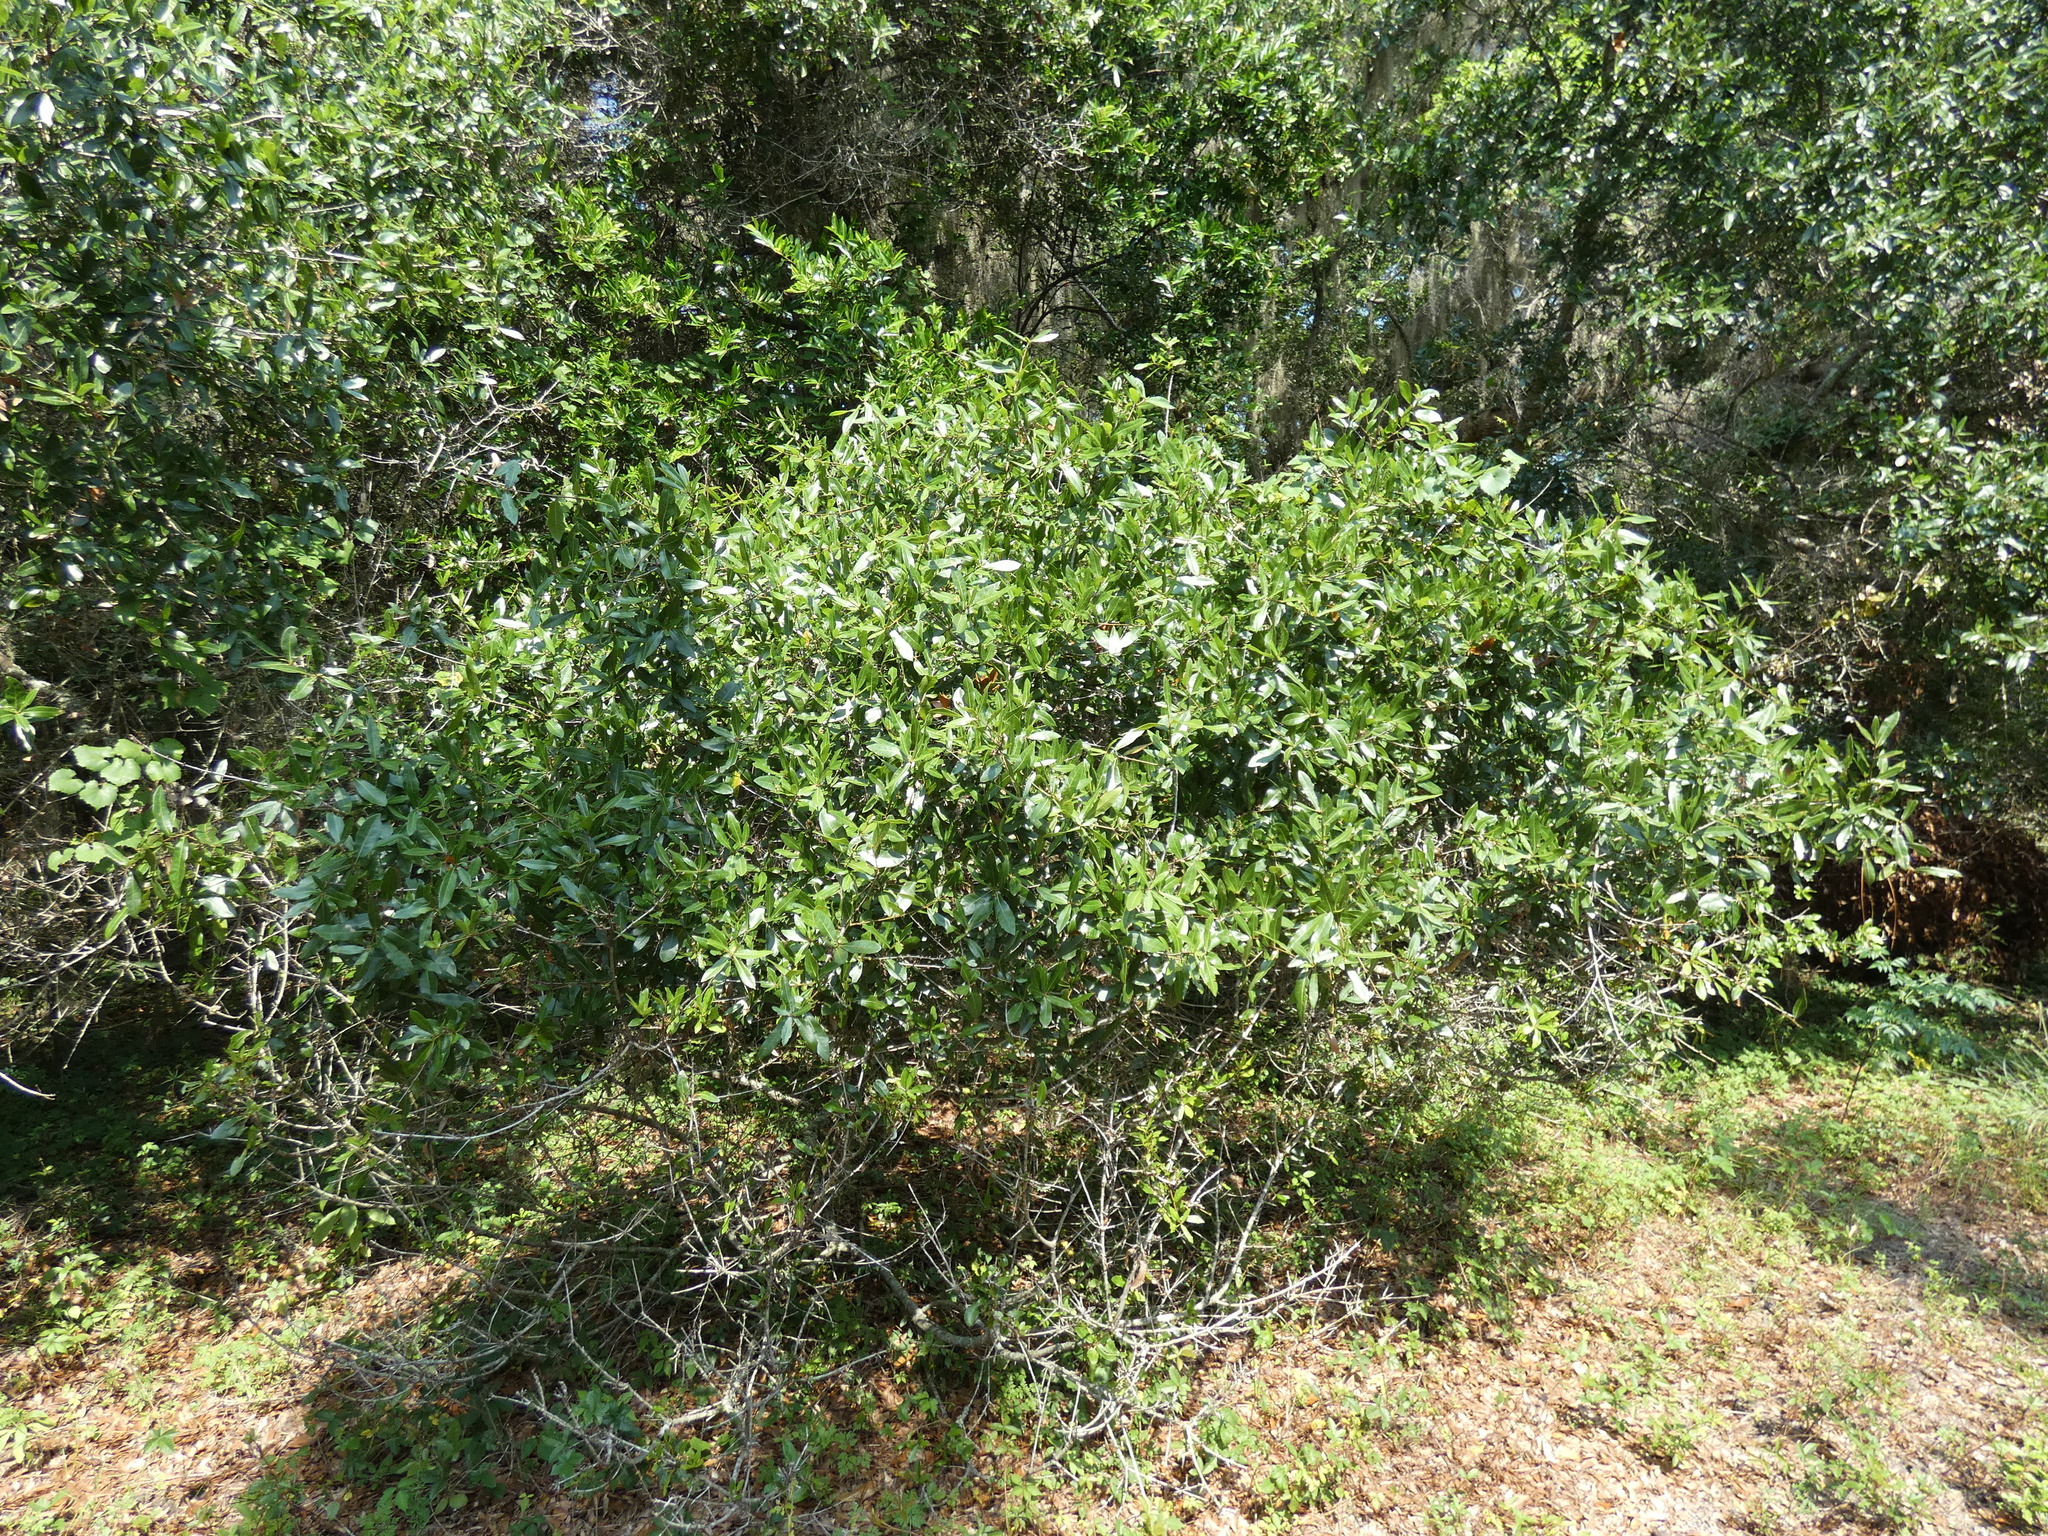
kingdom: Plantae
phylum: Tracheophyta
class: Magnoliopsida
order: Fagales
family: Fagaceae
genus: Quercus
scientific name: Quercus virginiana
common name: Southern live oak
